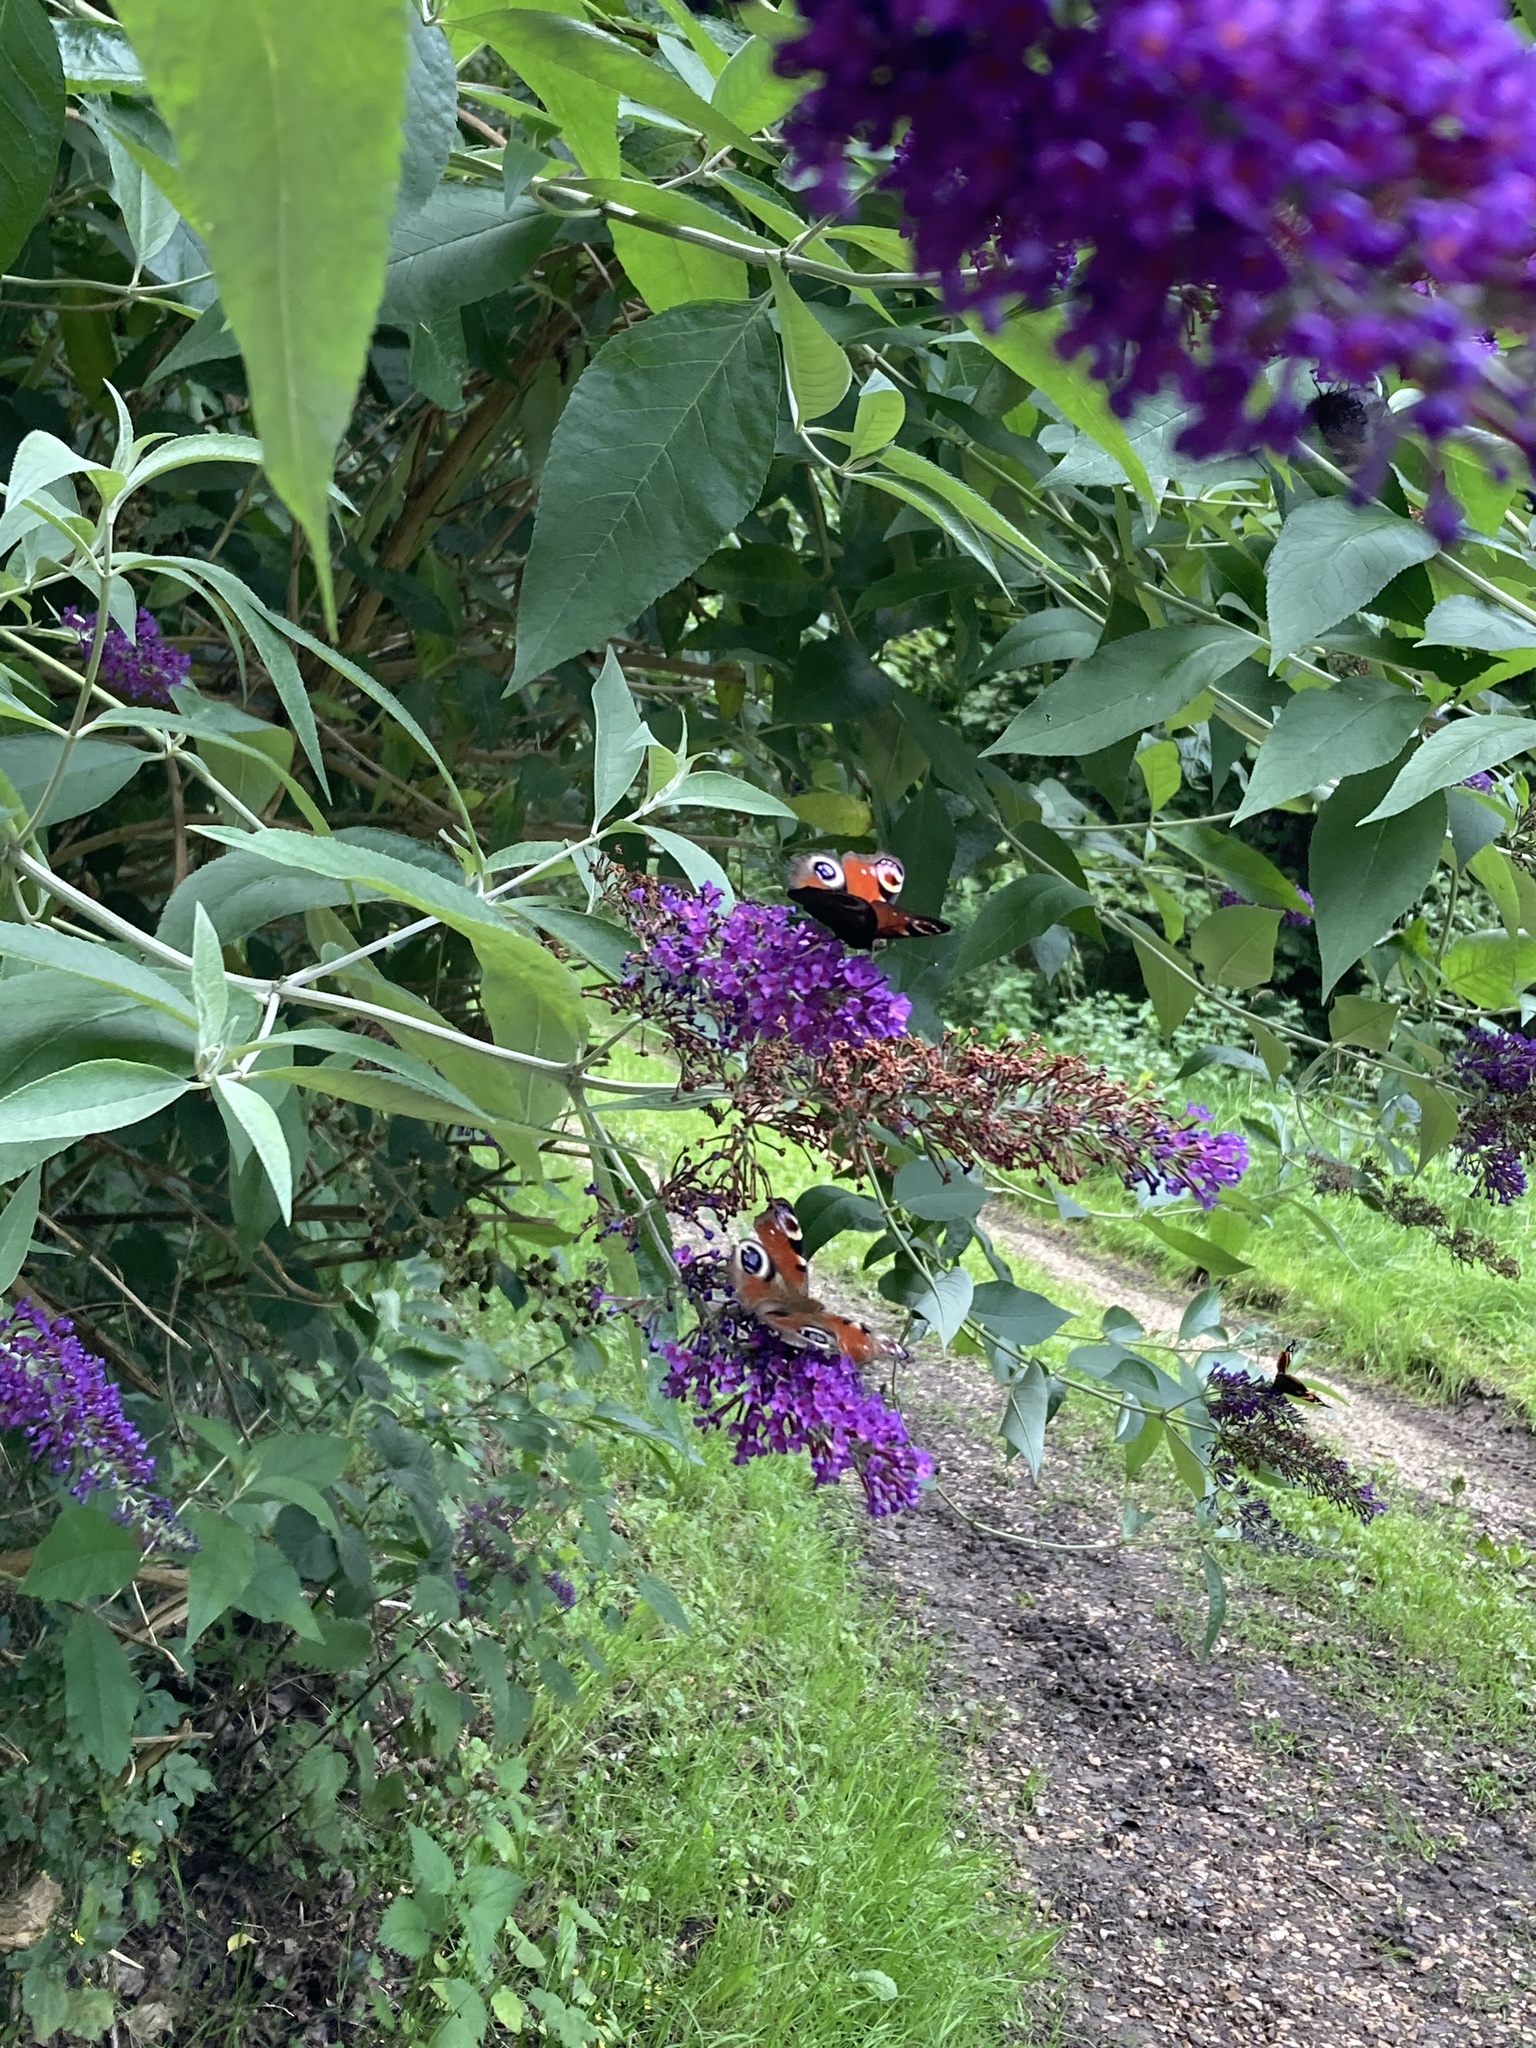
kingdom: Animalia
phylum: Arthropoda
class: Insecta
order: Lepidoptera
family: Nymphalidae
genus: Aglais
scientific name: Aglais io
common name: Peacock
